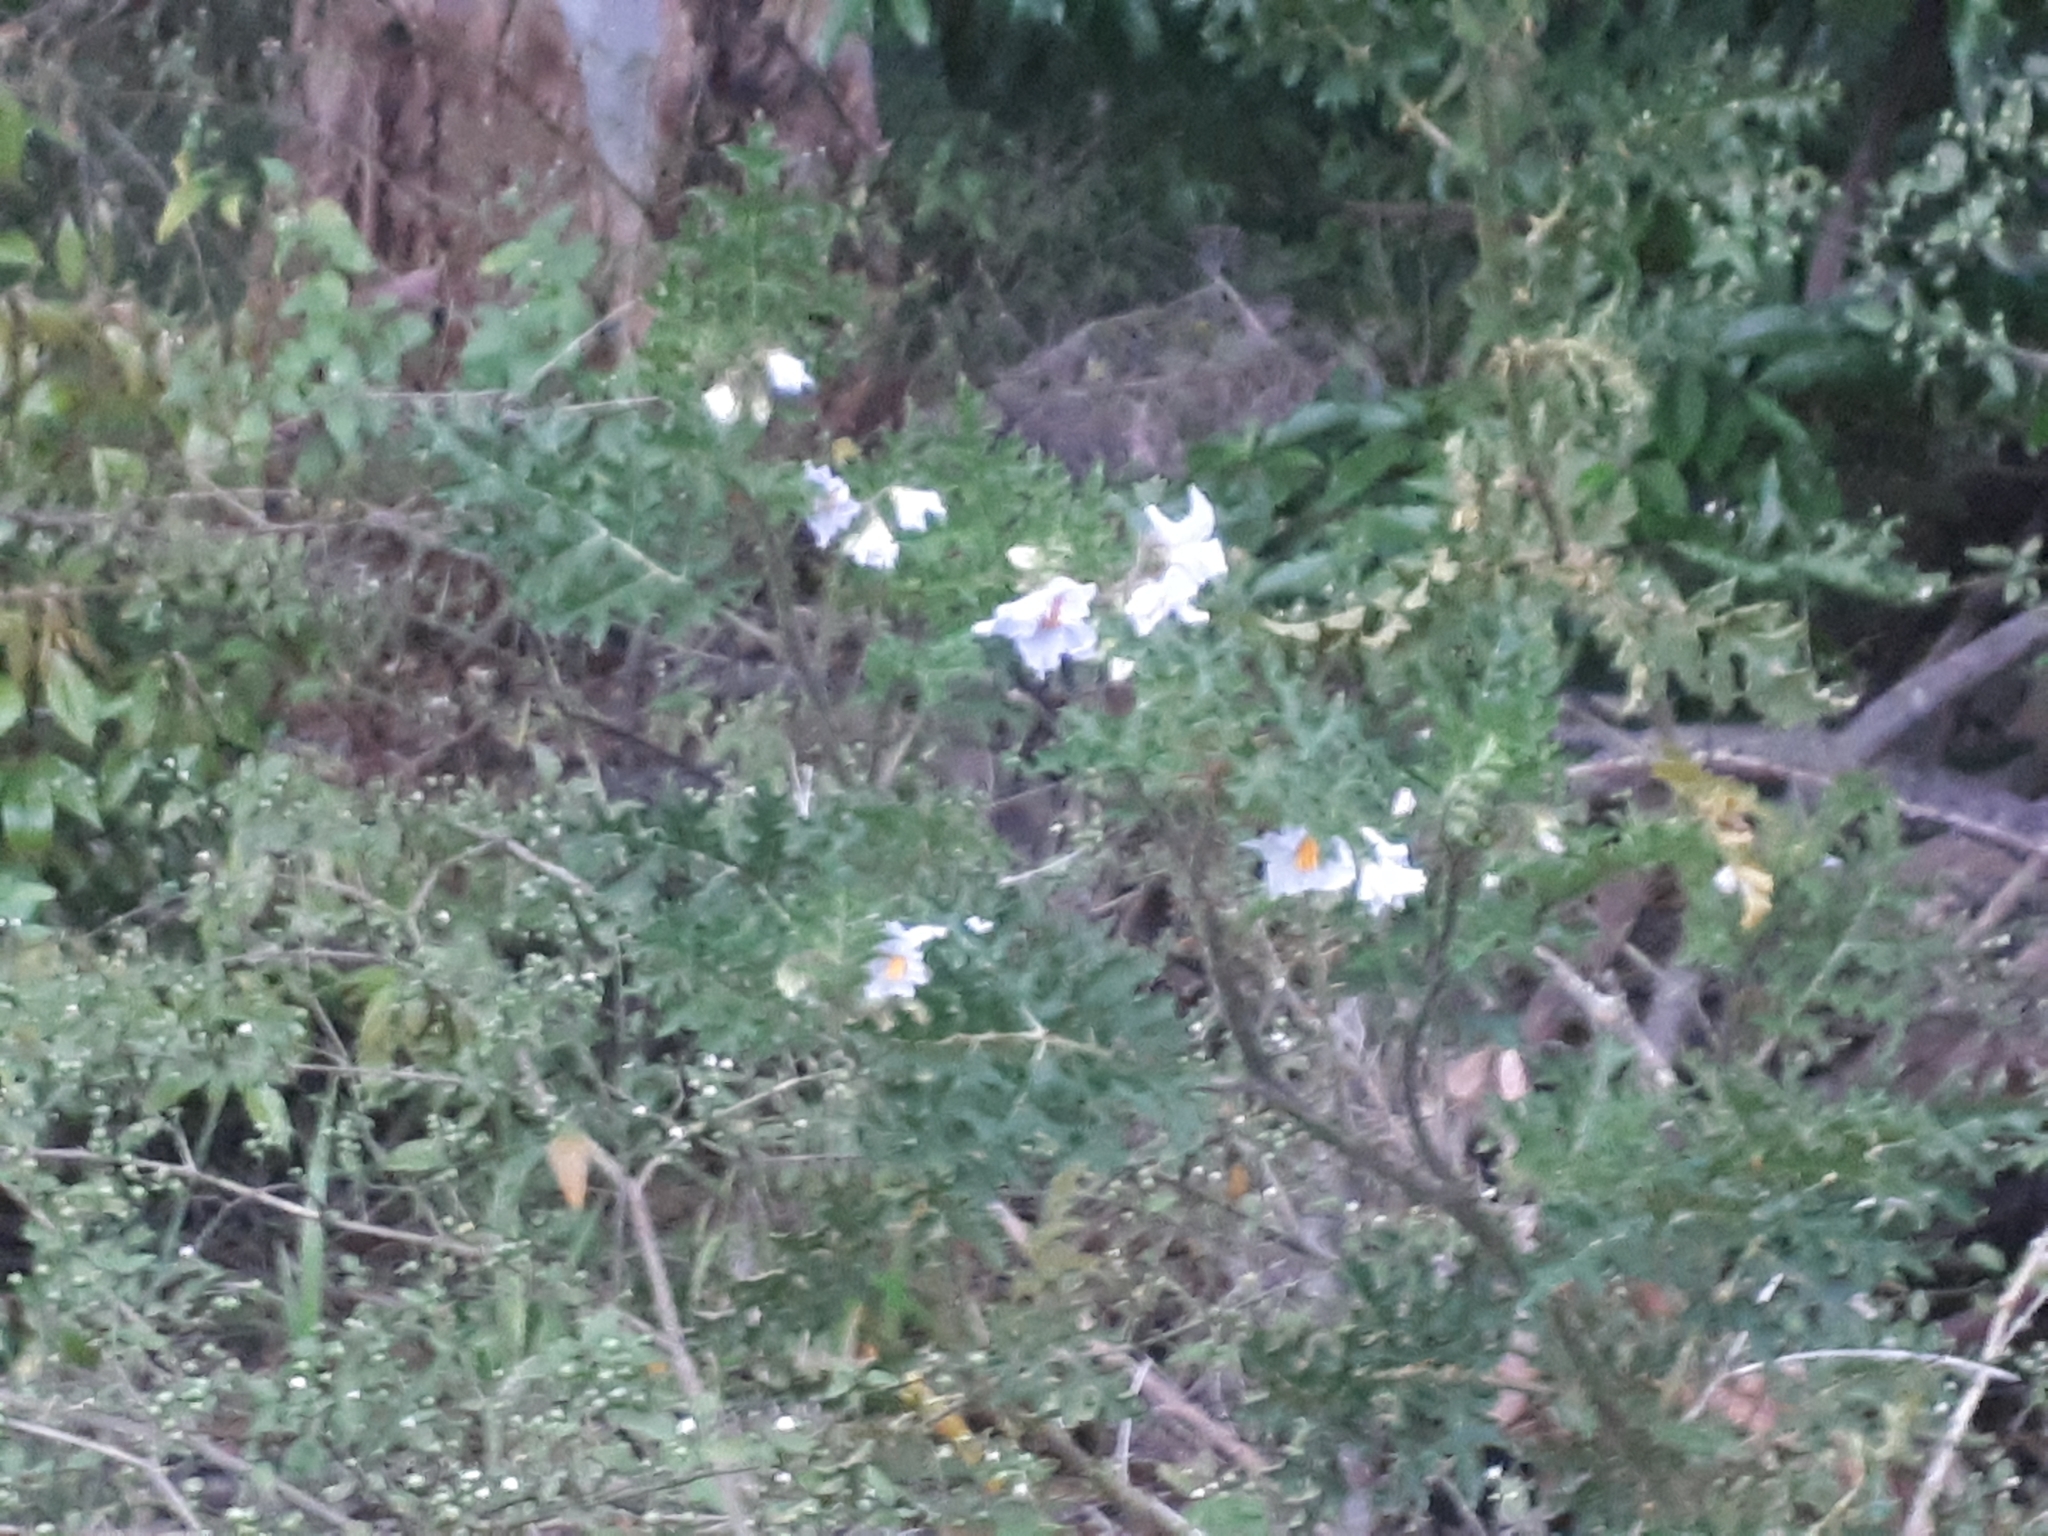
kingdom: Plantae
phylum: Tracheophyta
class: Magnoliopsida
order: Solanales
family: Solanaceae
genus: Solanum
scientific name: Solanum sisymbriifolium
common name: Red buffalo-bur
